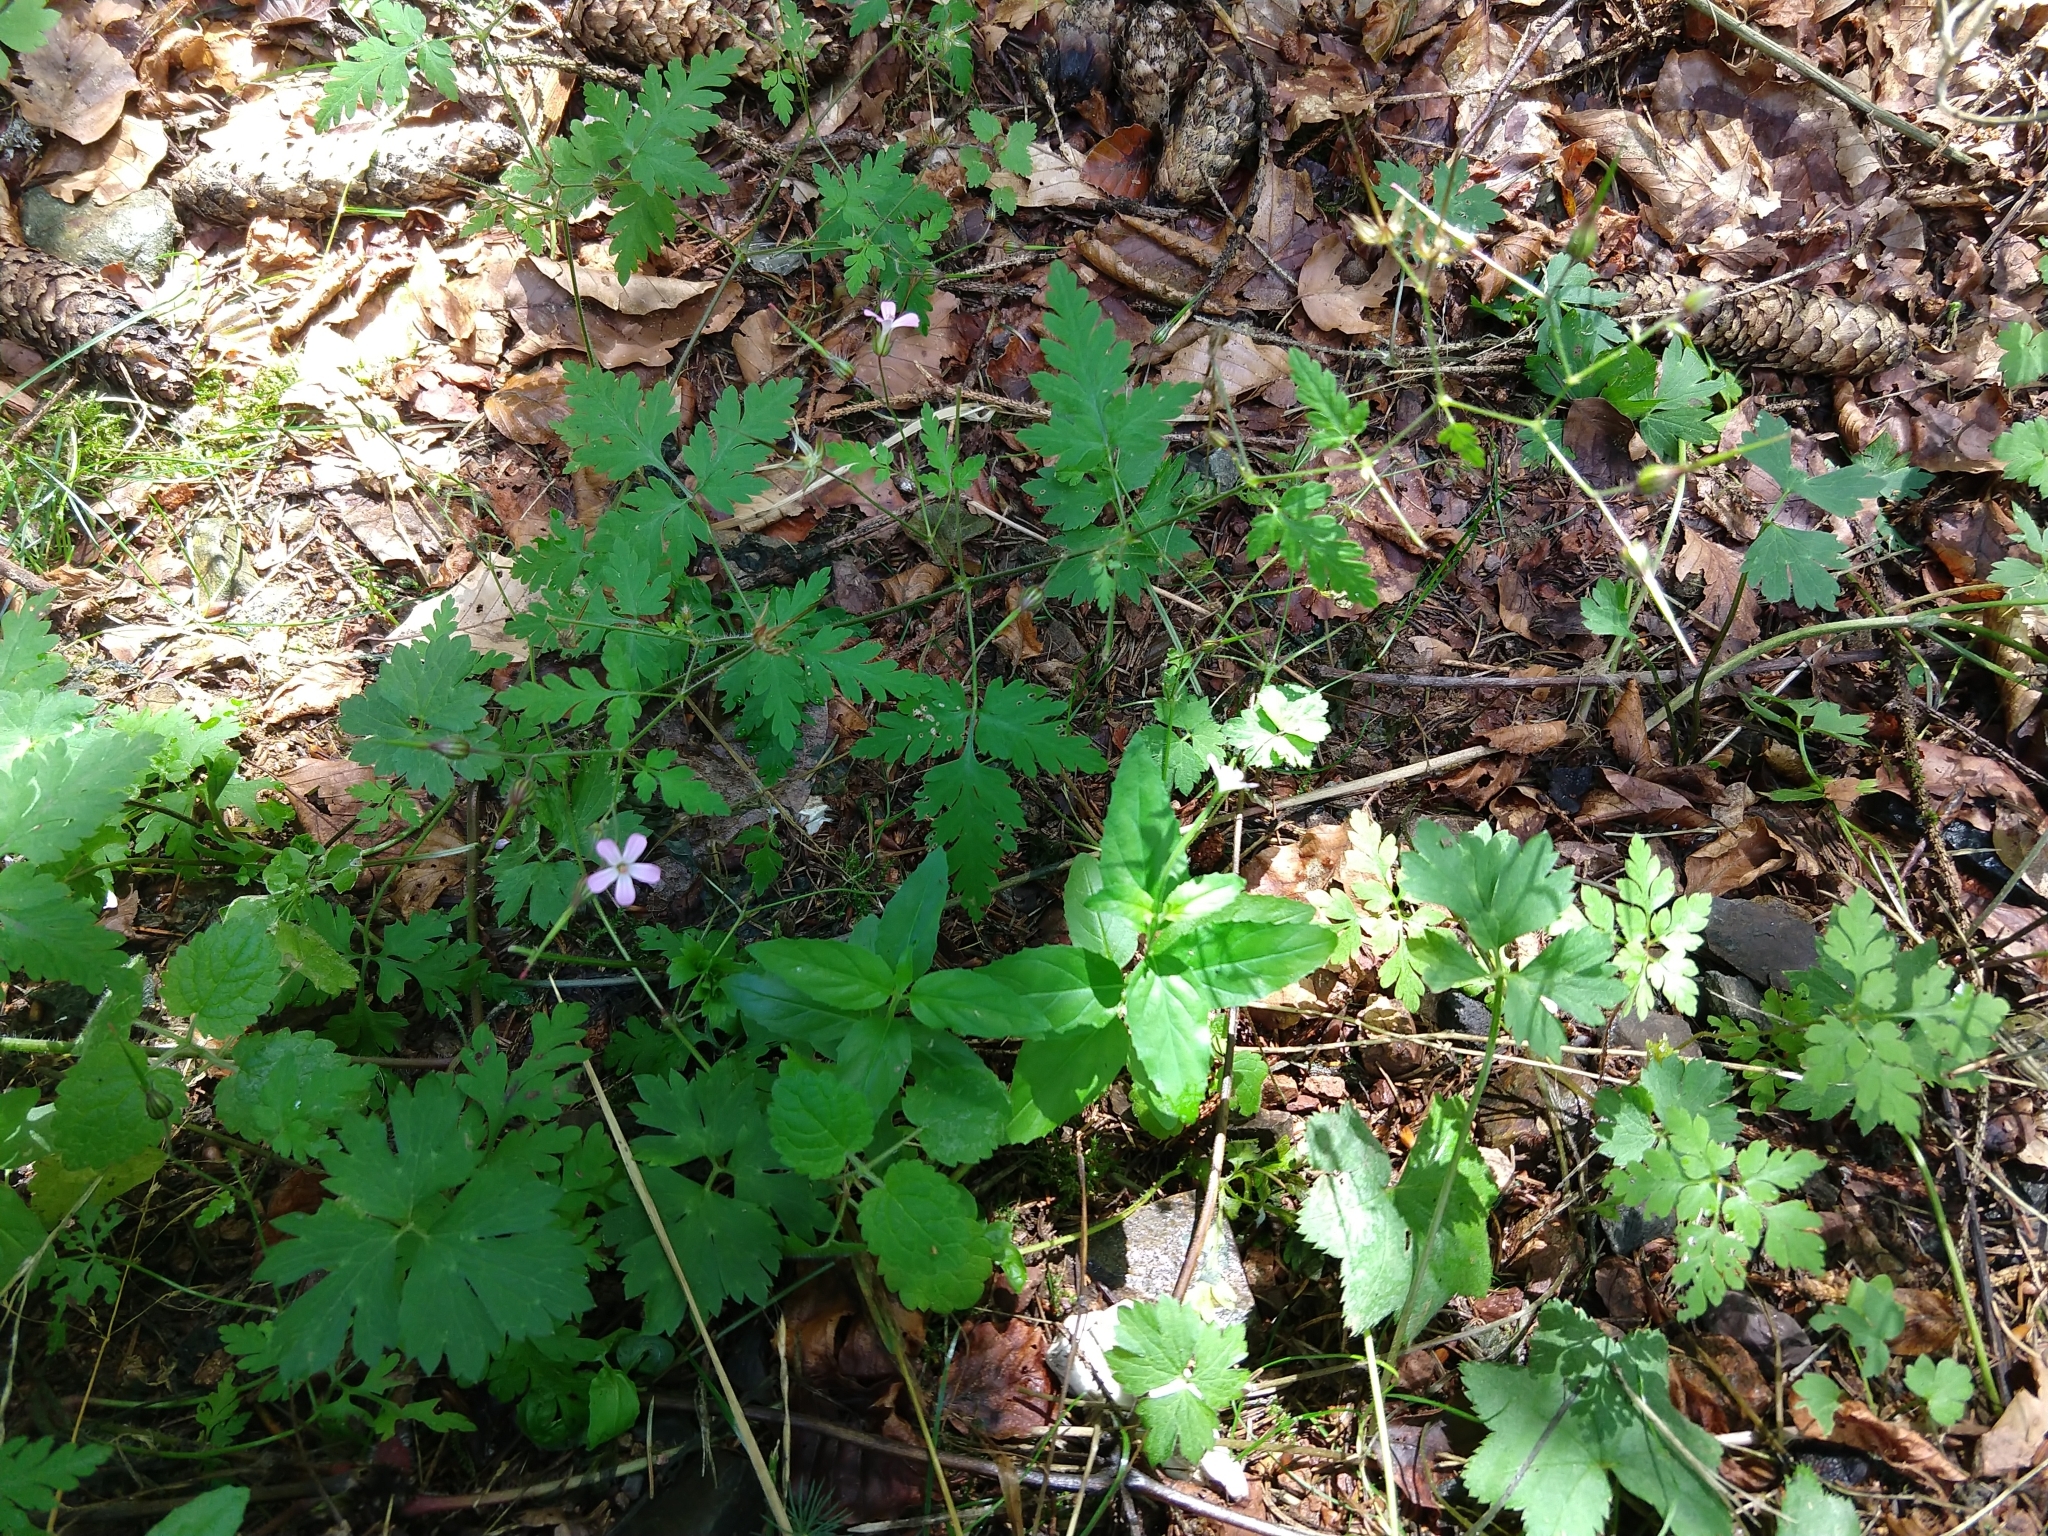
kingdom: Plantae
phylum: Tracheophyta
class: Magnoliopsida
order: Geraniales
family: Geraniaceae
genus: Geranium
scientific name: Geranium robertianum
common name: Herb-robert
